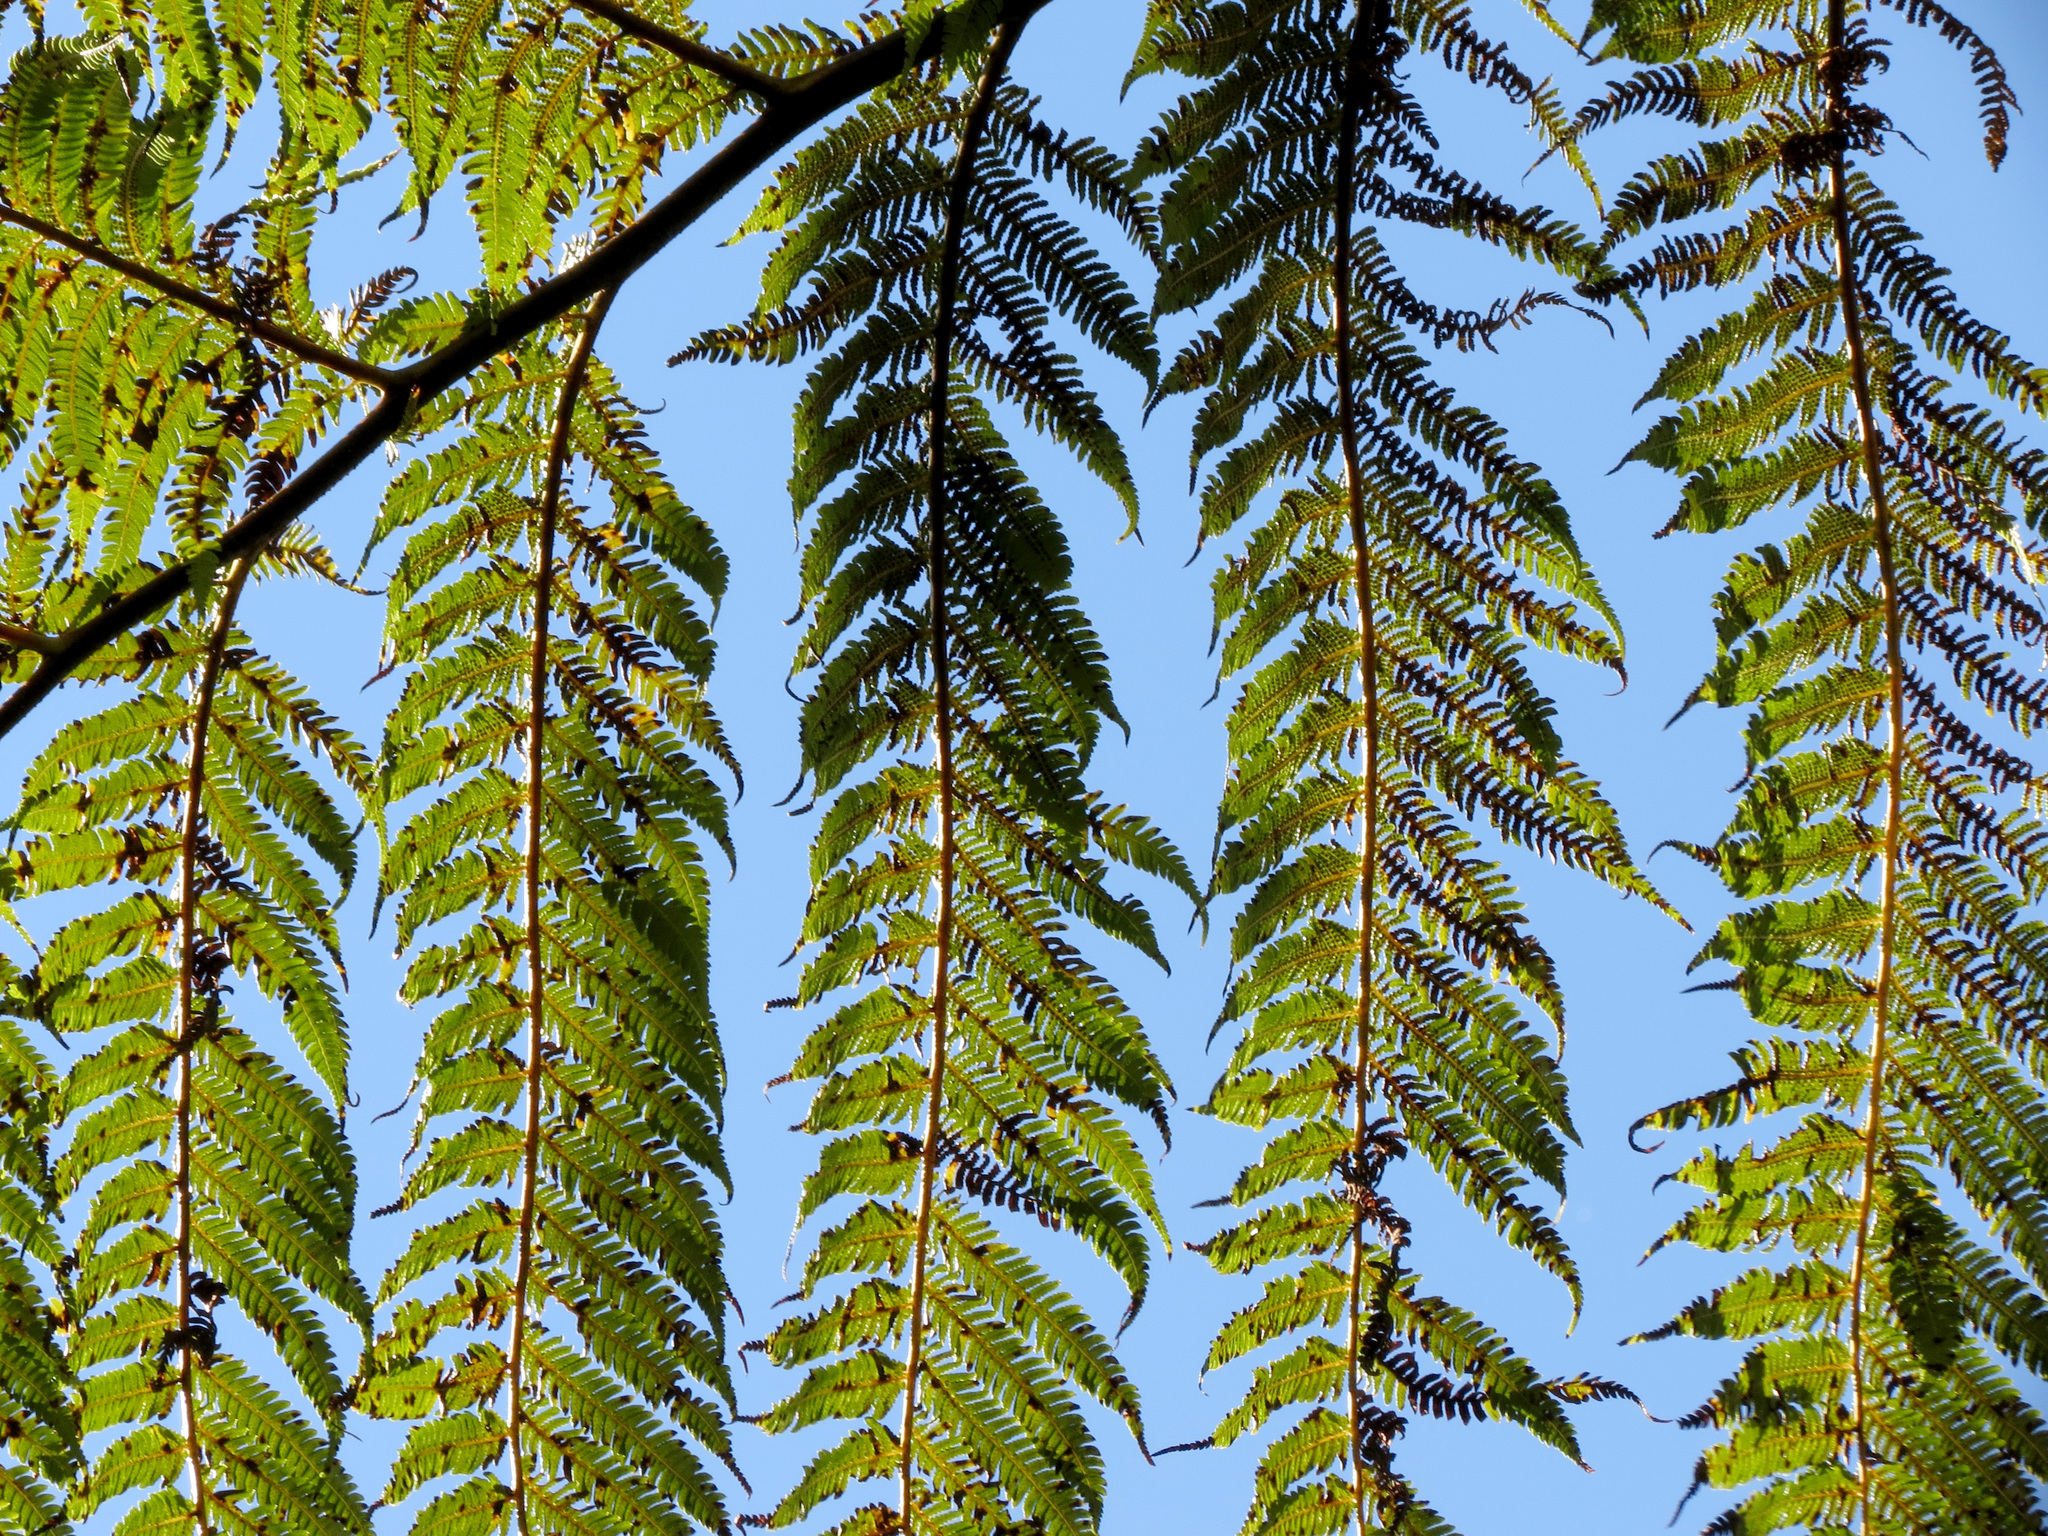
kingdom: Plantae
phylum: Tracheophyta
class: Polypodiopsida
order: Cyatheales
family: Cyatheaceae
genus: Sphaeropteris
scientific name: Sphaeropteris medullaris
